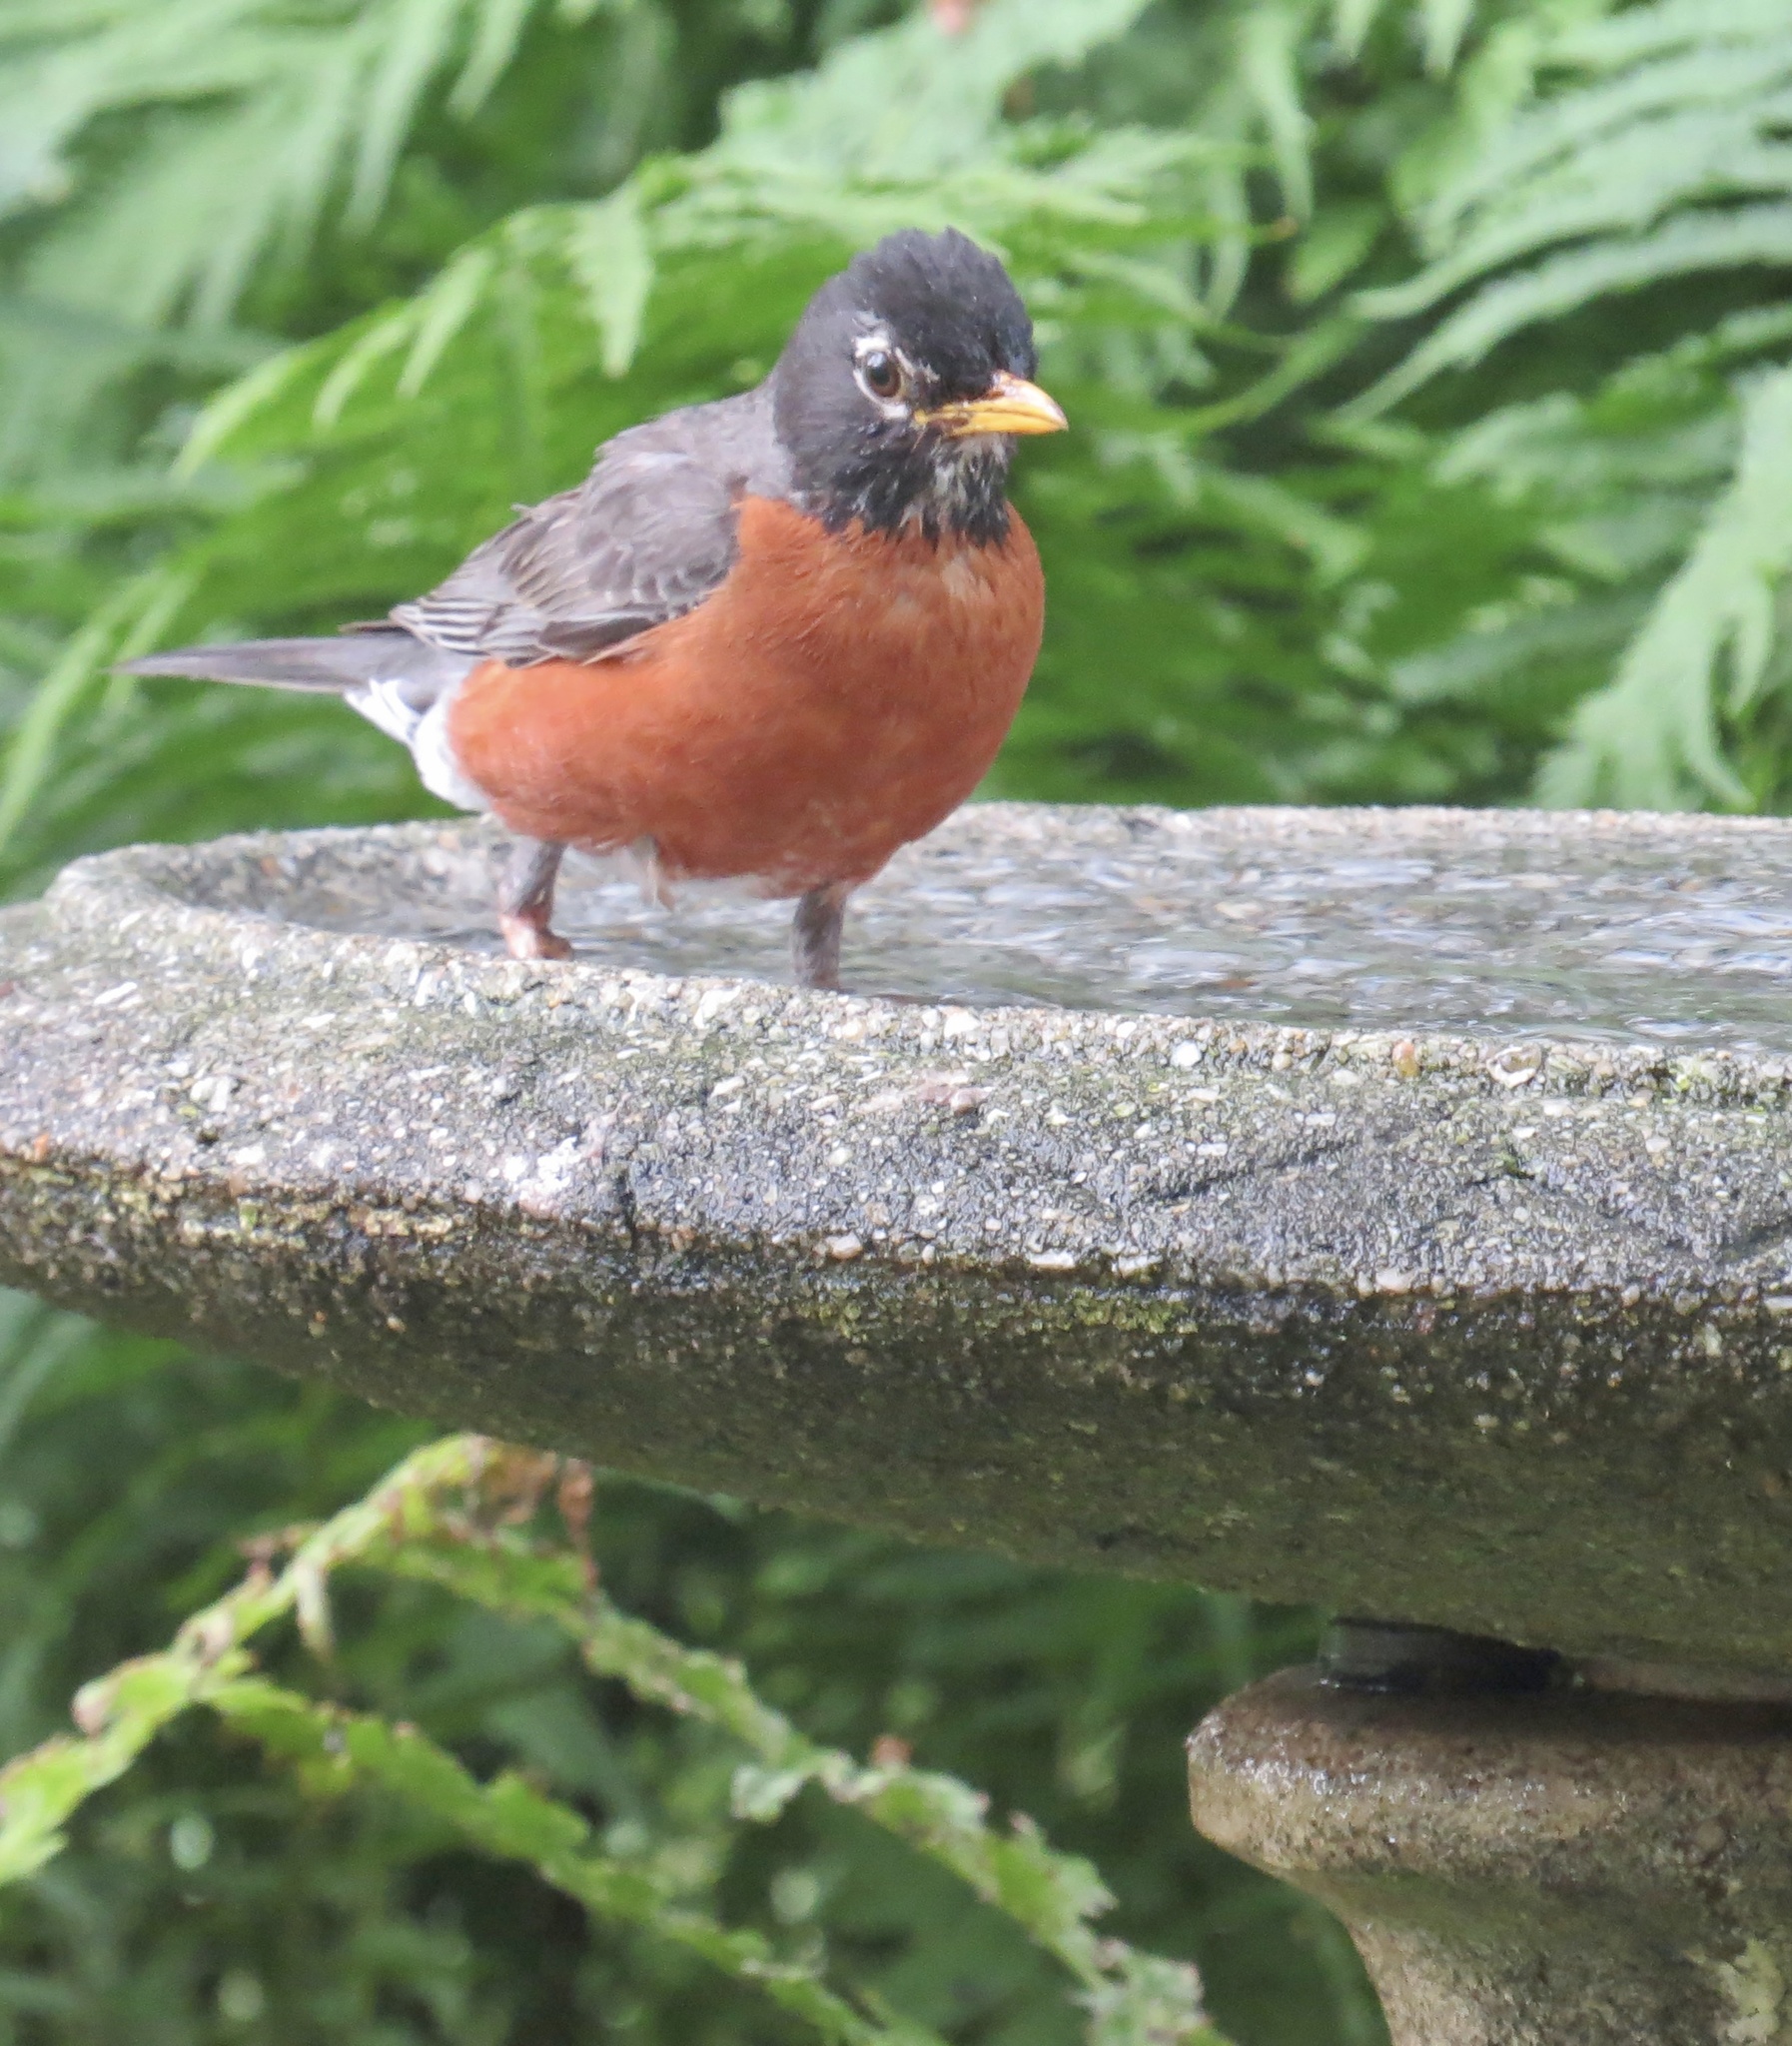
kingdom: Animalia
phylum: Chordata
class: Aves
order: Passeriformes
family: Turdidae
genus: Turdus
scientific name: Turdus migratorius
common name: American robin
